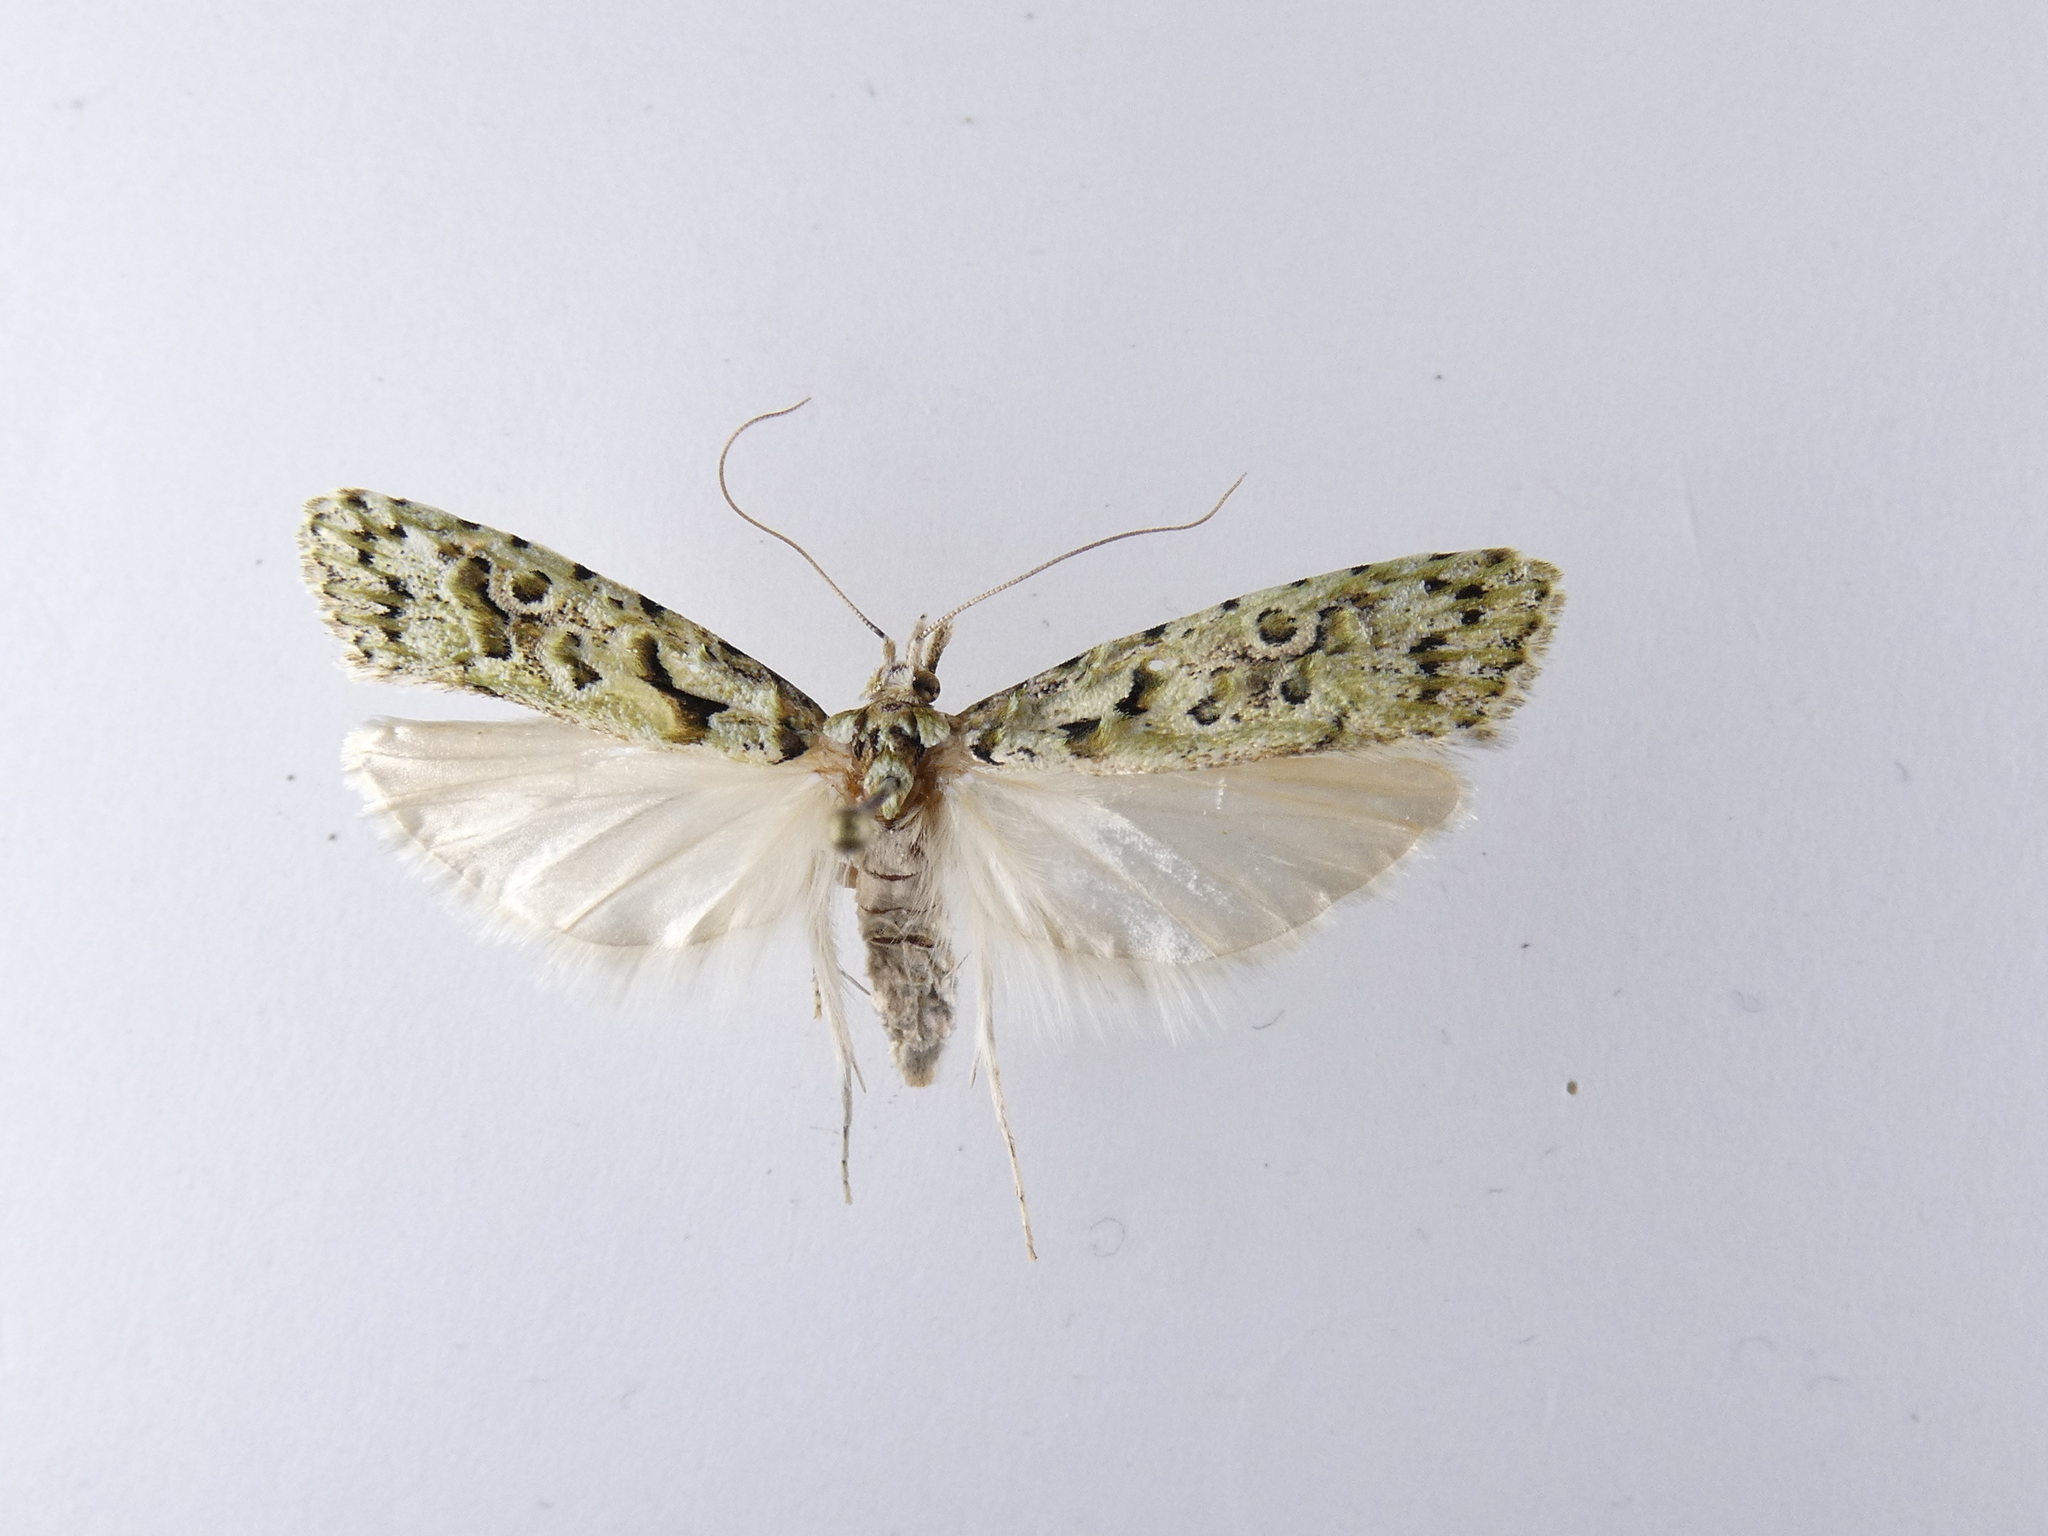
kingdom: Animalia
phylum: Arthropoda
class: Insecta
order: Lepidoptera
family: Carposinidae
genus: Carposina
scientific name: Carposina Heterocrossa eriphylla
